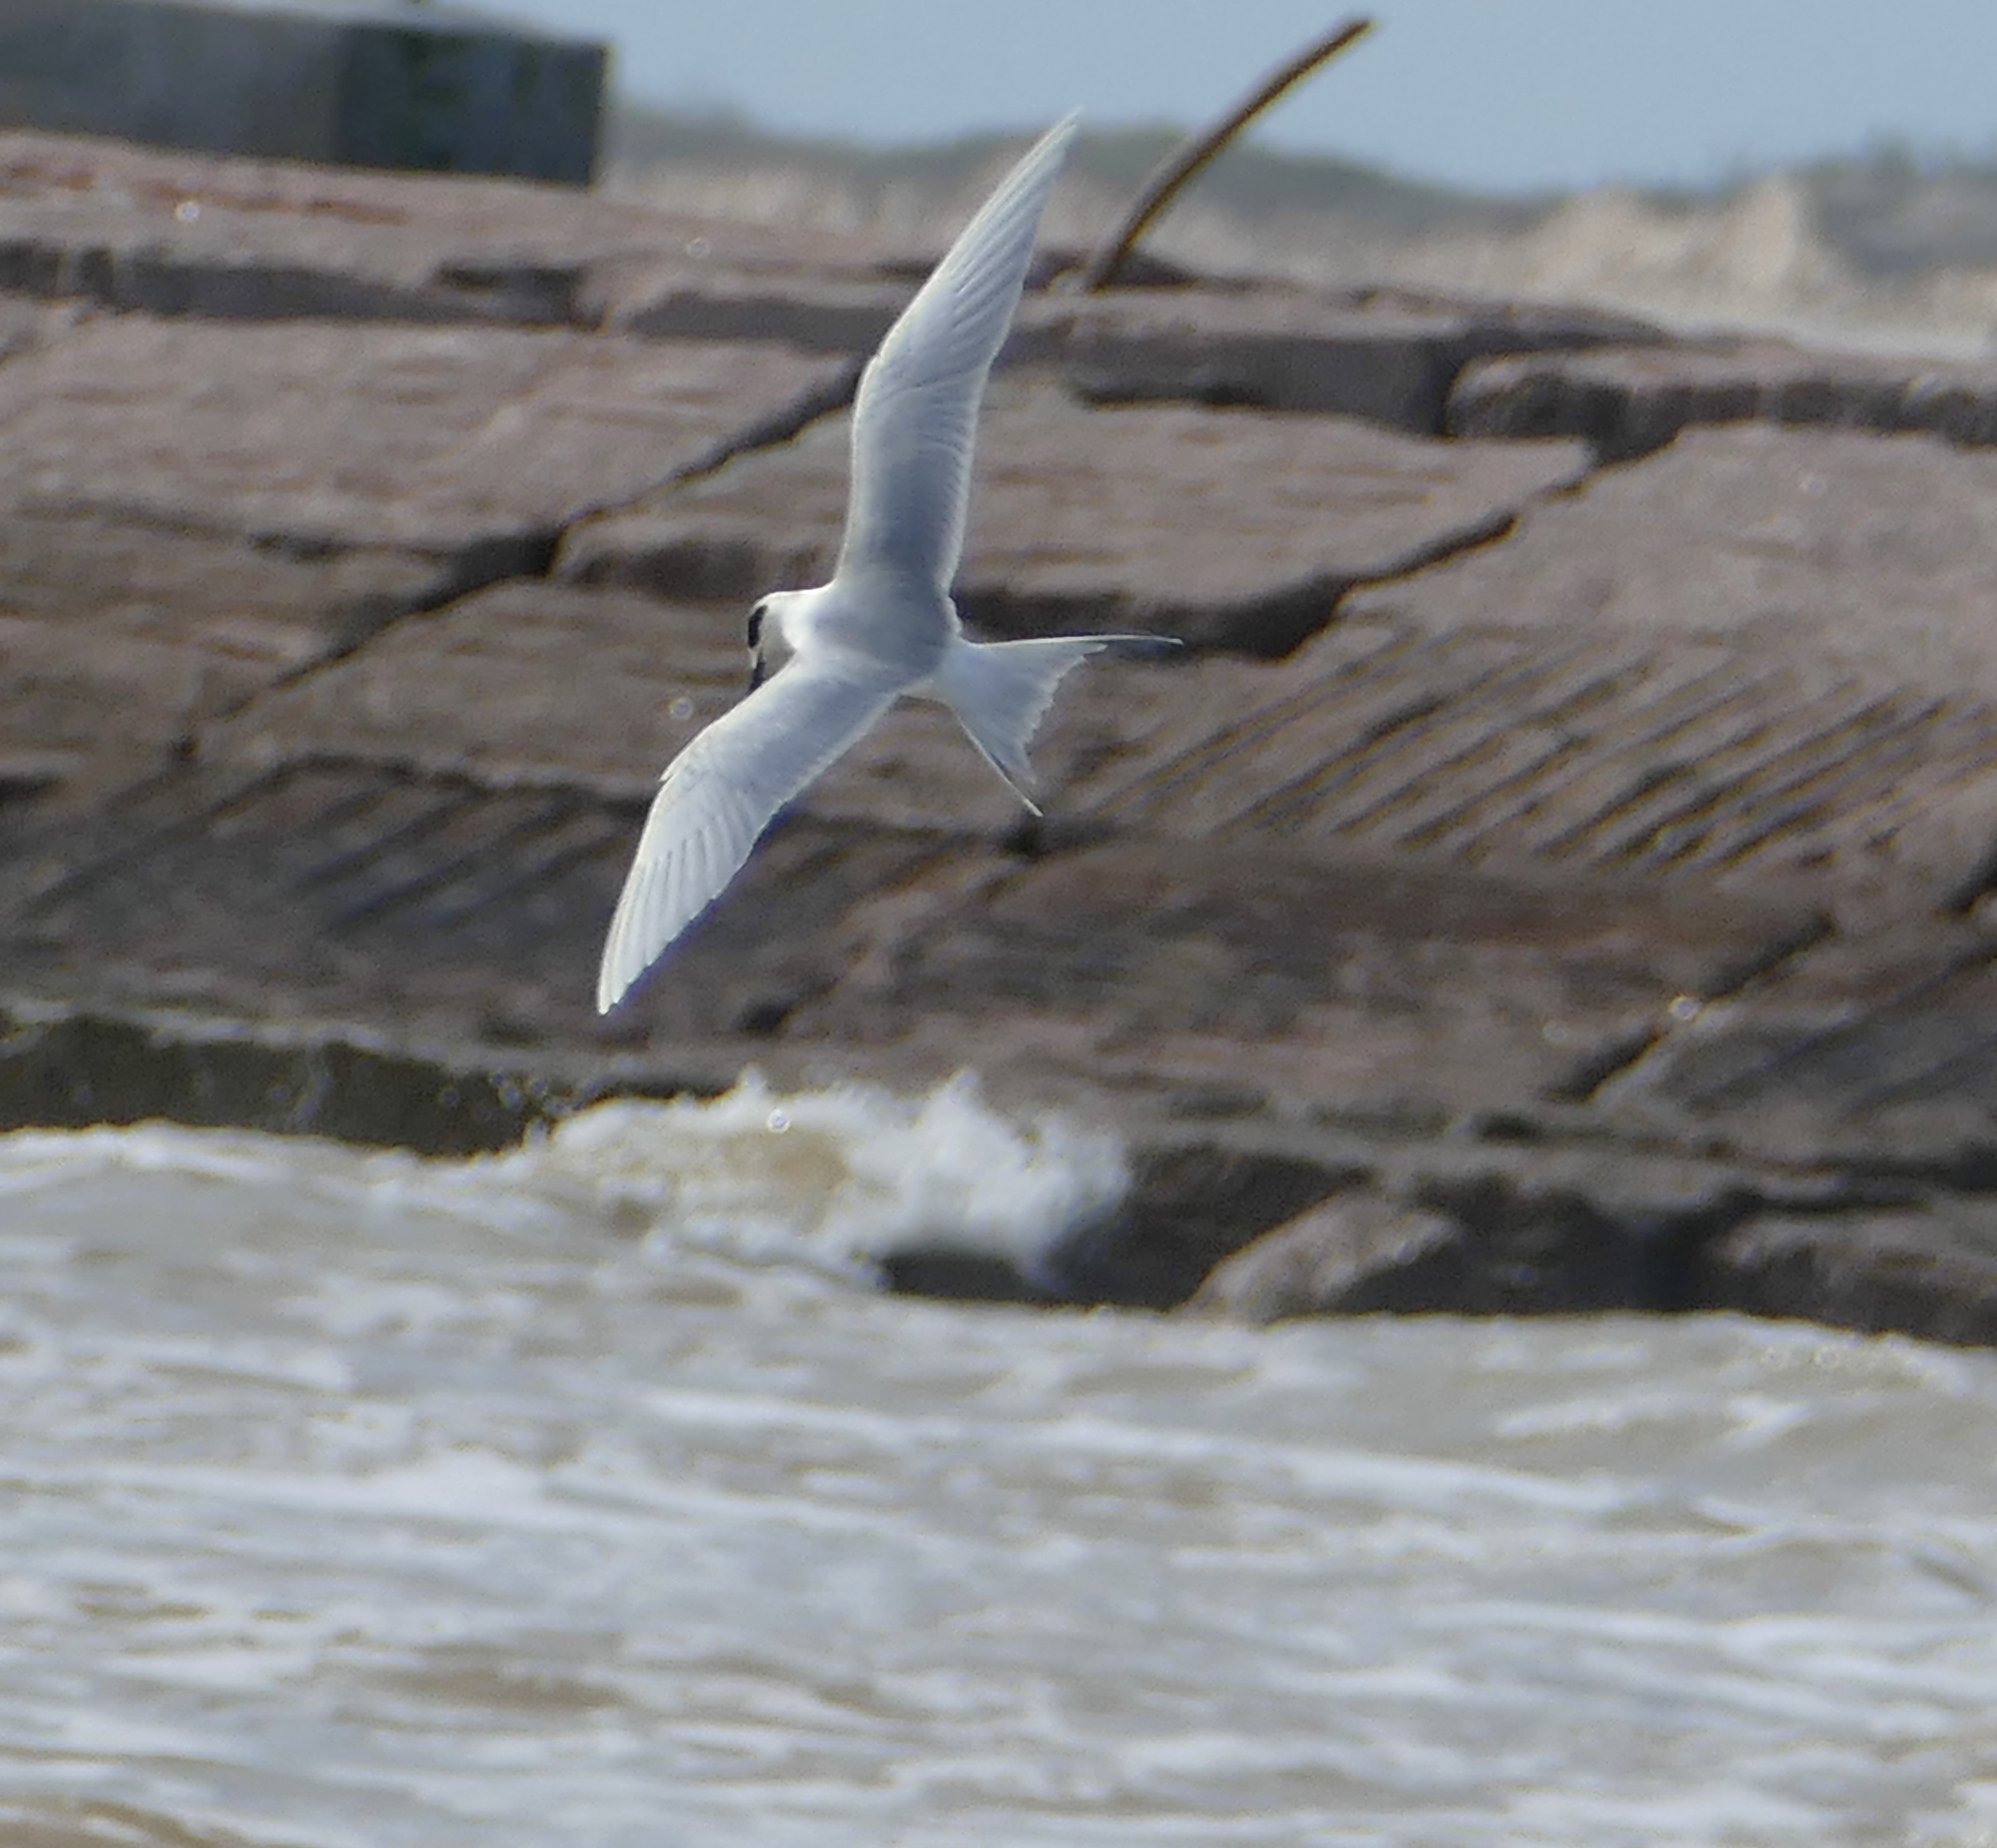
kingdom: Animalia
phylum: Chordata
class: Aves
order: Charadriiformes
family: Laridae
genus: Sterna
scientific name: Sterna forsteri
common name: Forster's tern
